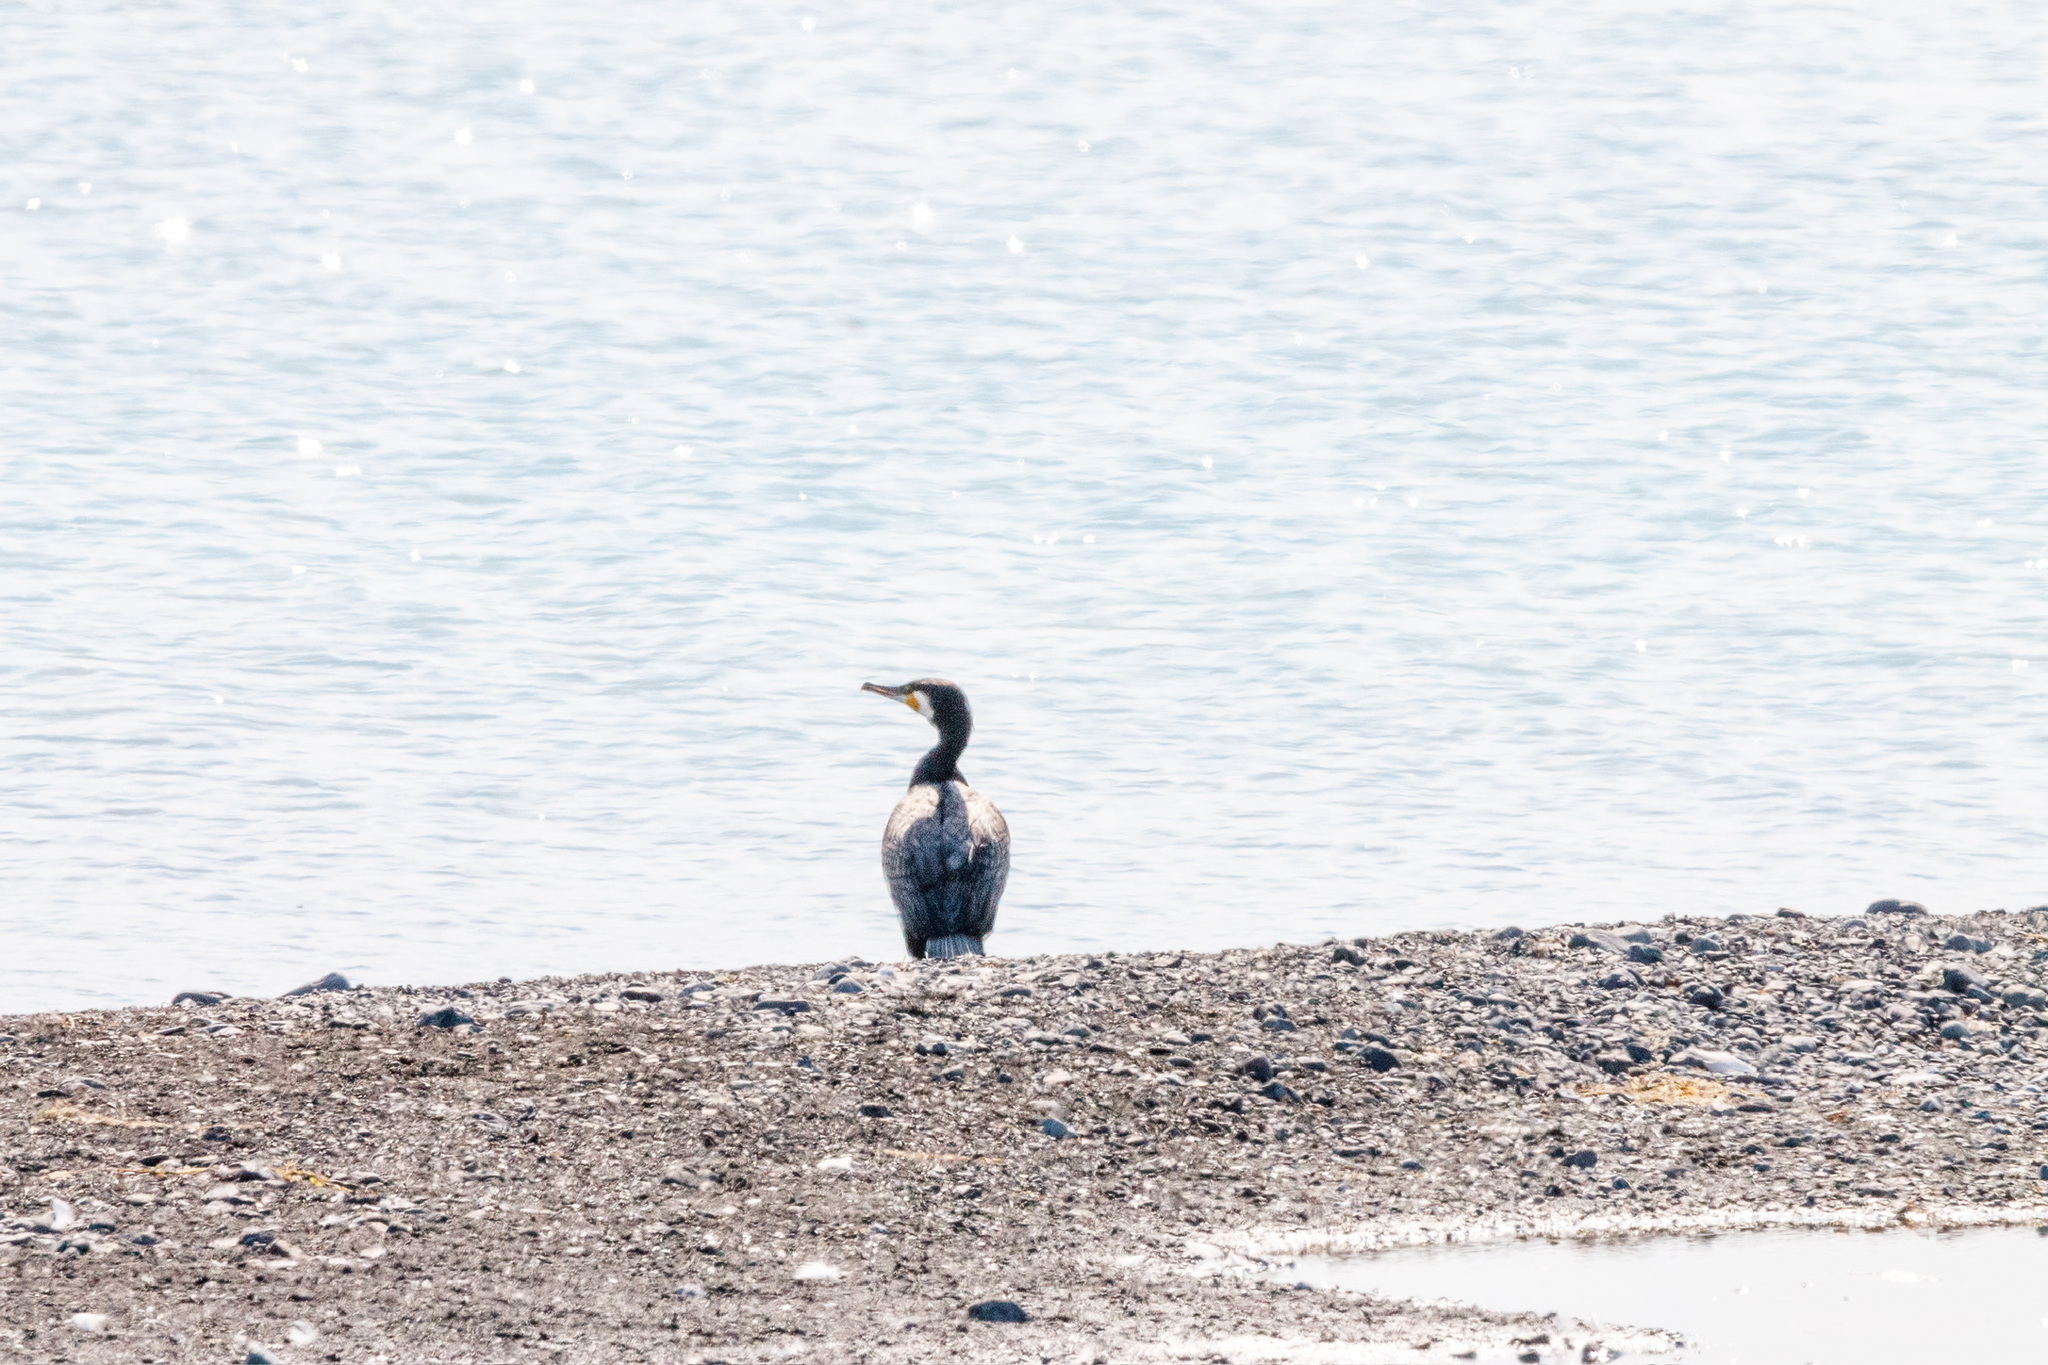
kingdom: Animalia
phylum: Chordata
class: Aves
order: Suliformes
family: Phalacrocoracidae
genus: Phalacrocorax
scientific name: Phalacrocorax carbo
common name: Great cormorant
